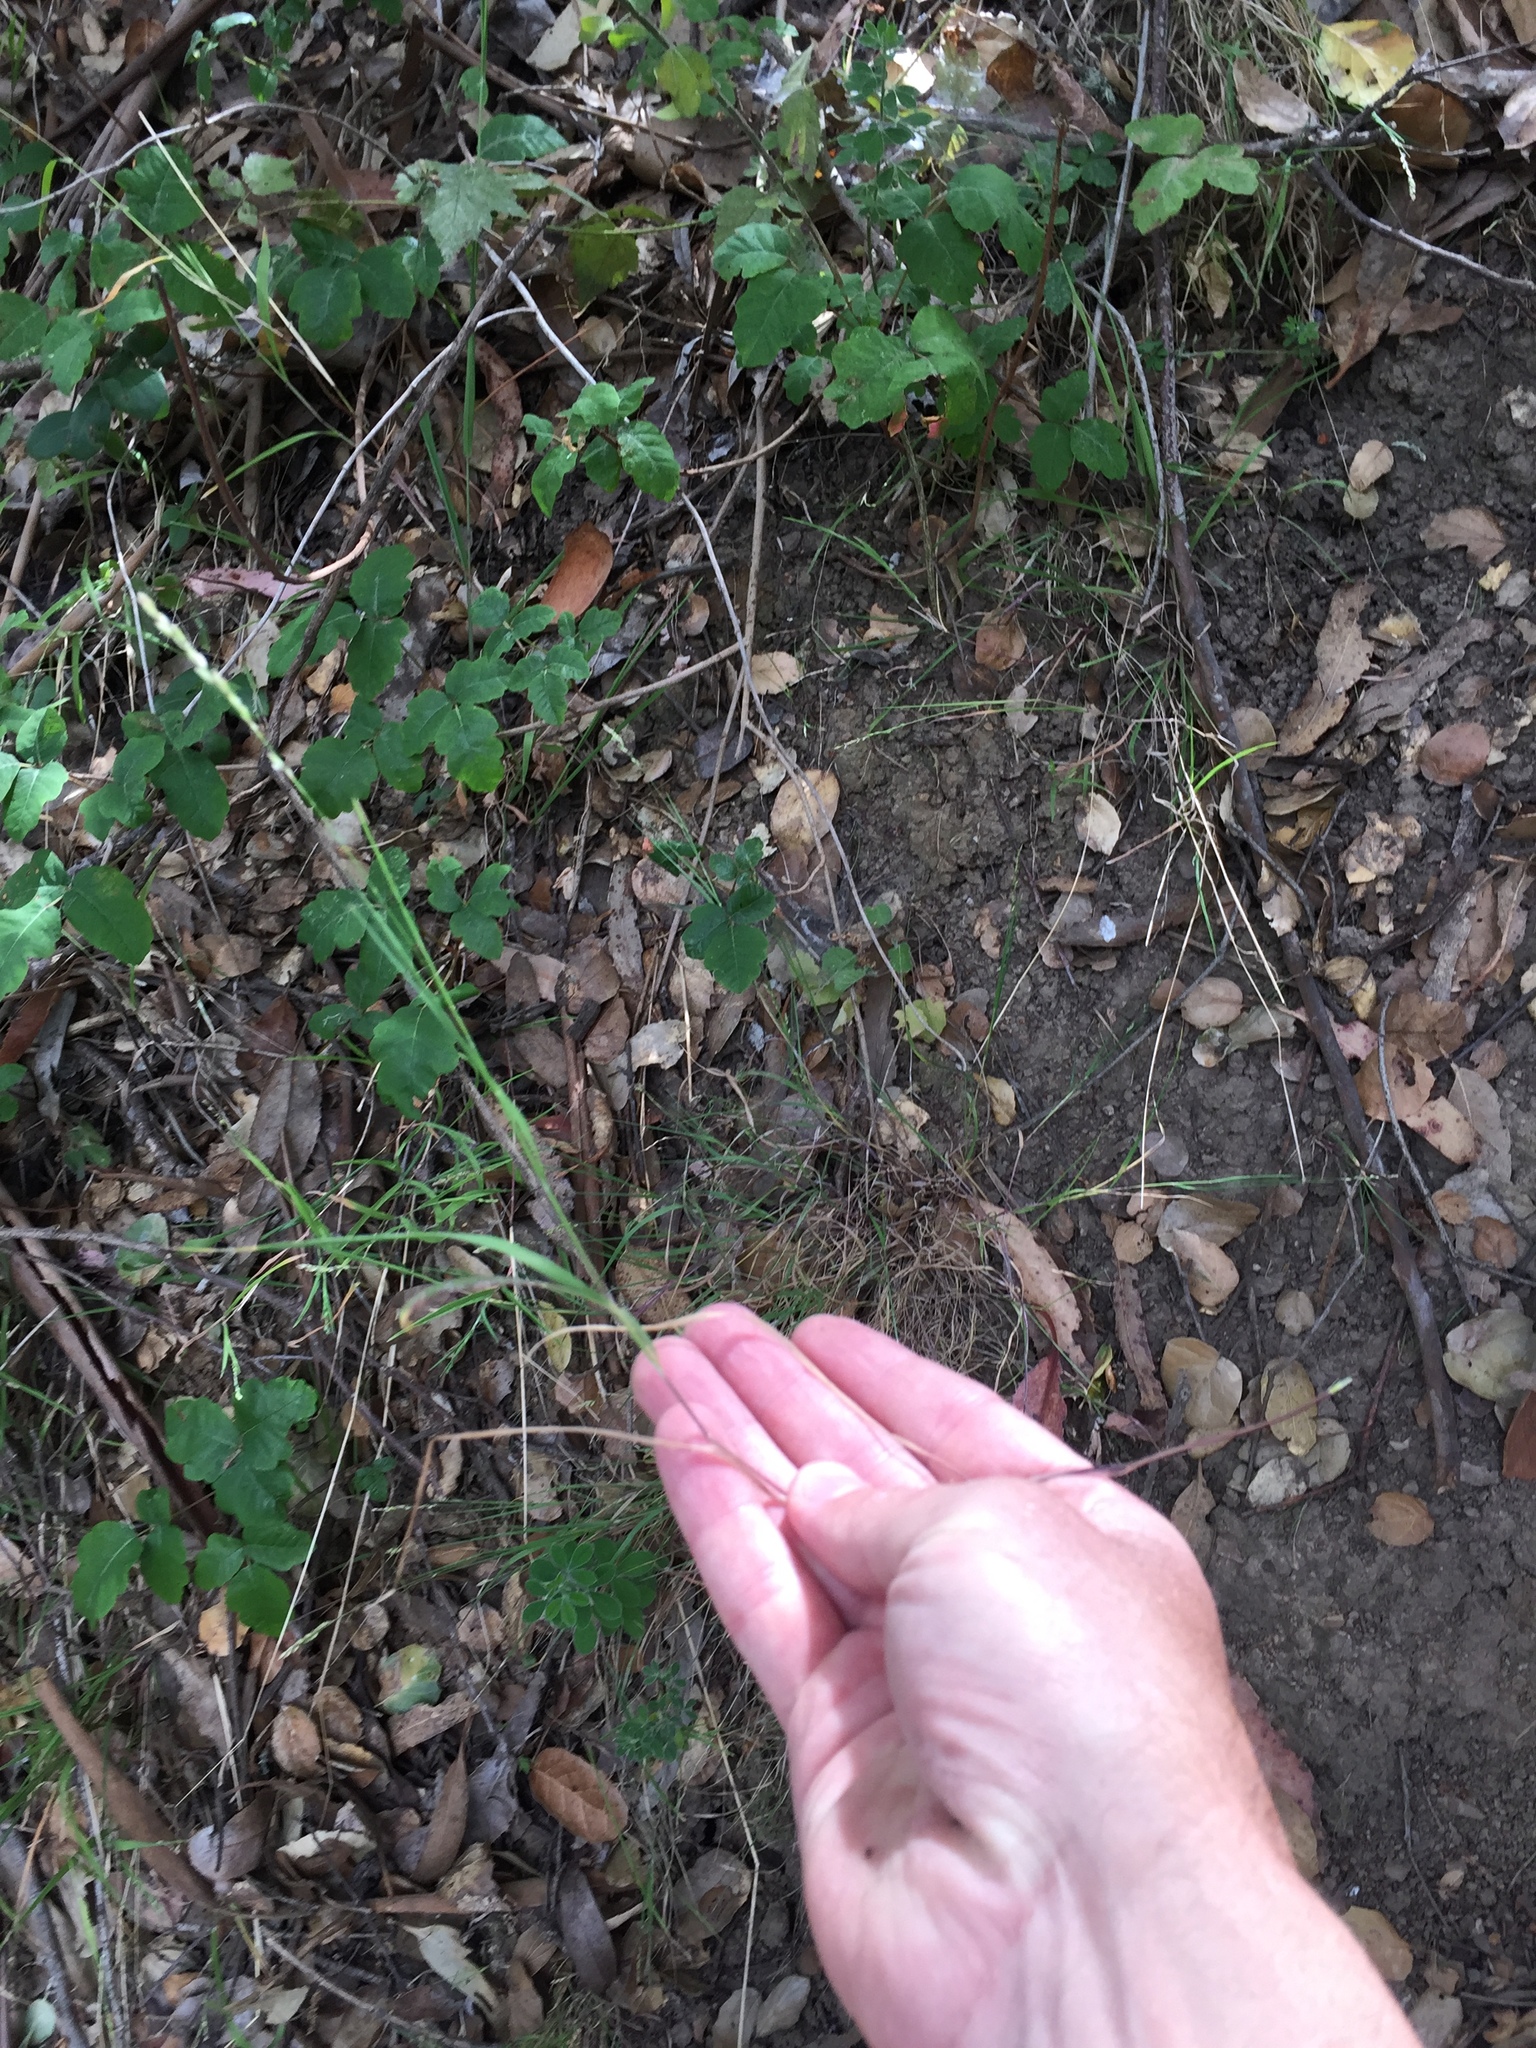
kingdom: Plantae
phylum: Tracheophyta
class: Liliopsida
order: Poales
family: Poaceae
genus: Melica
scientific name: Melica torreyana
